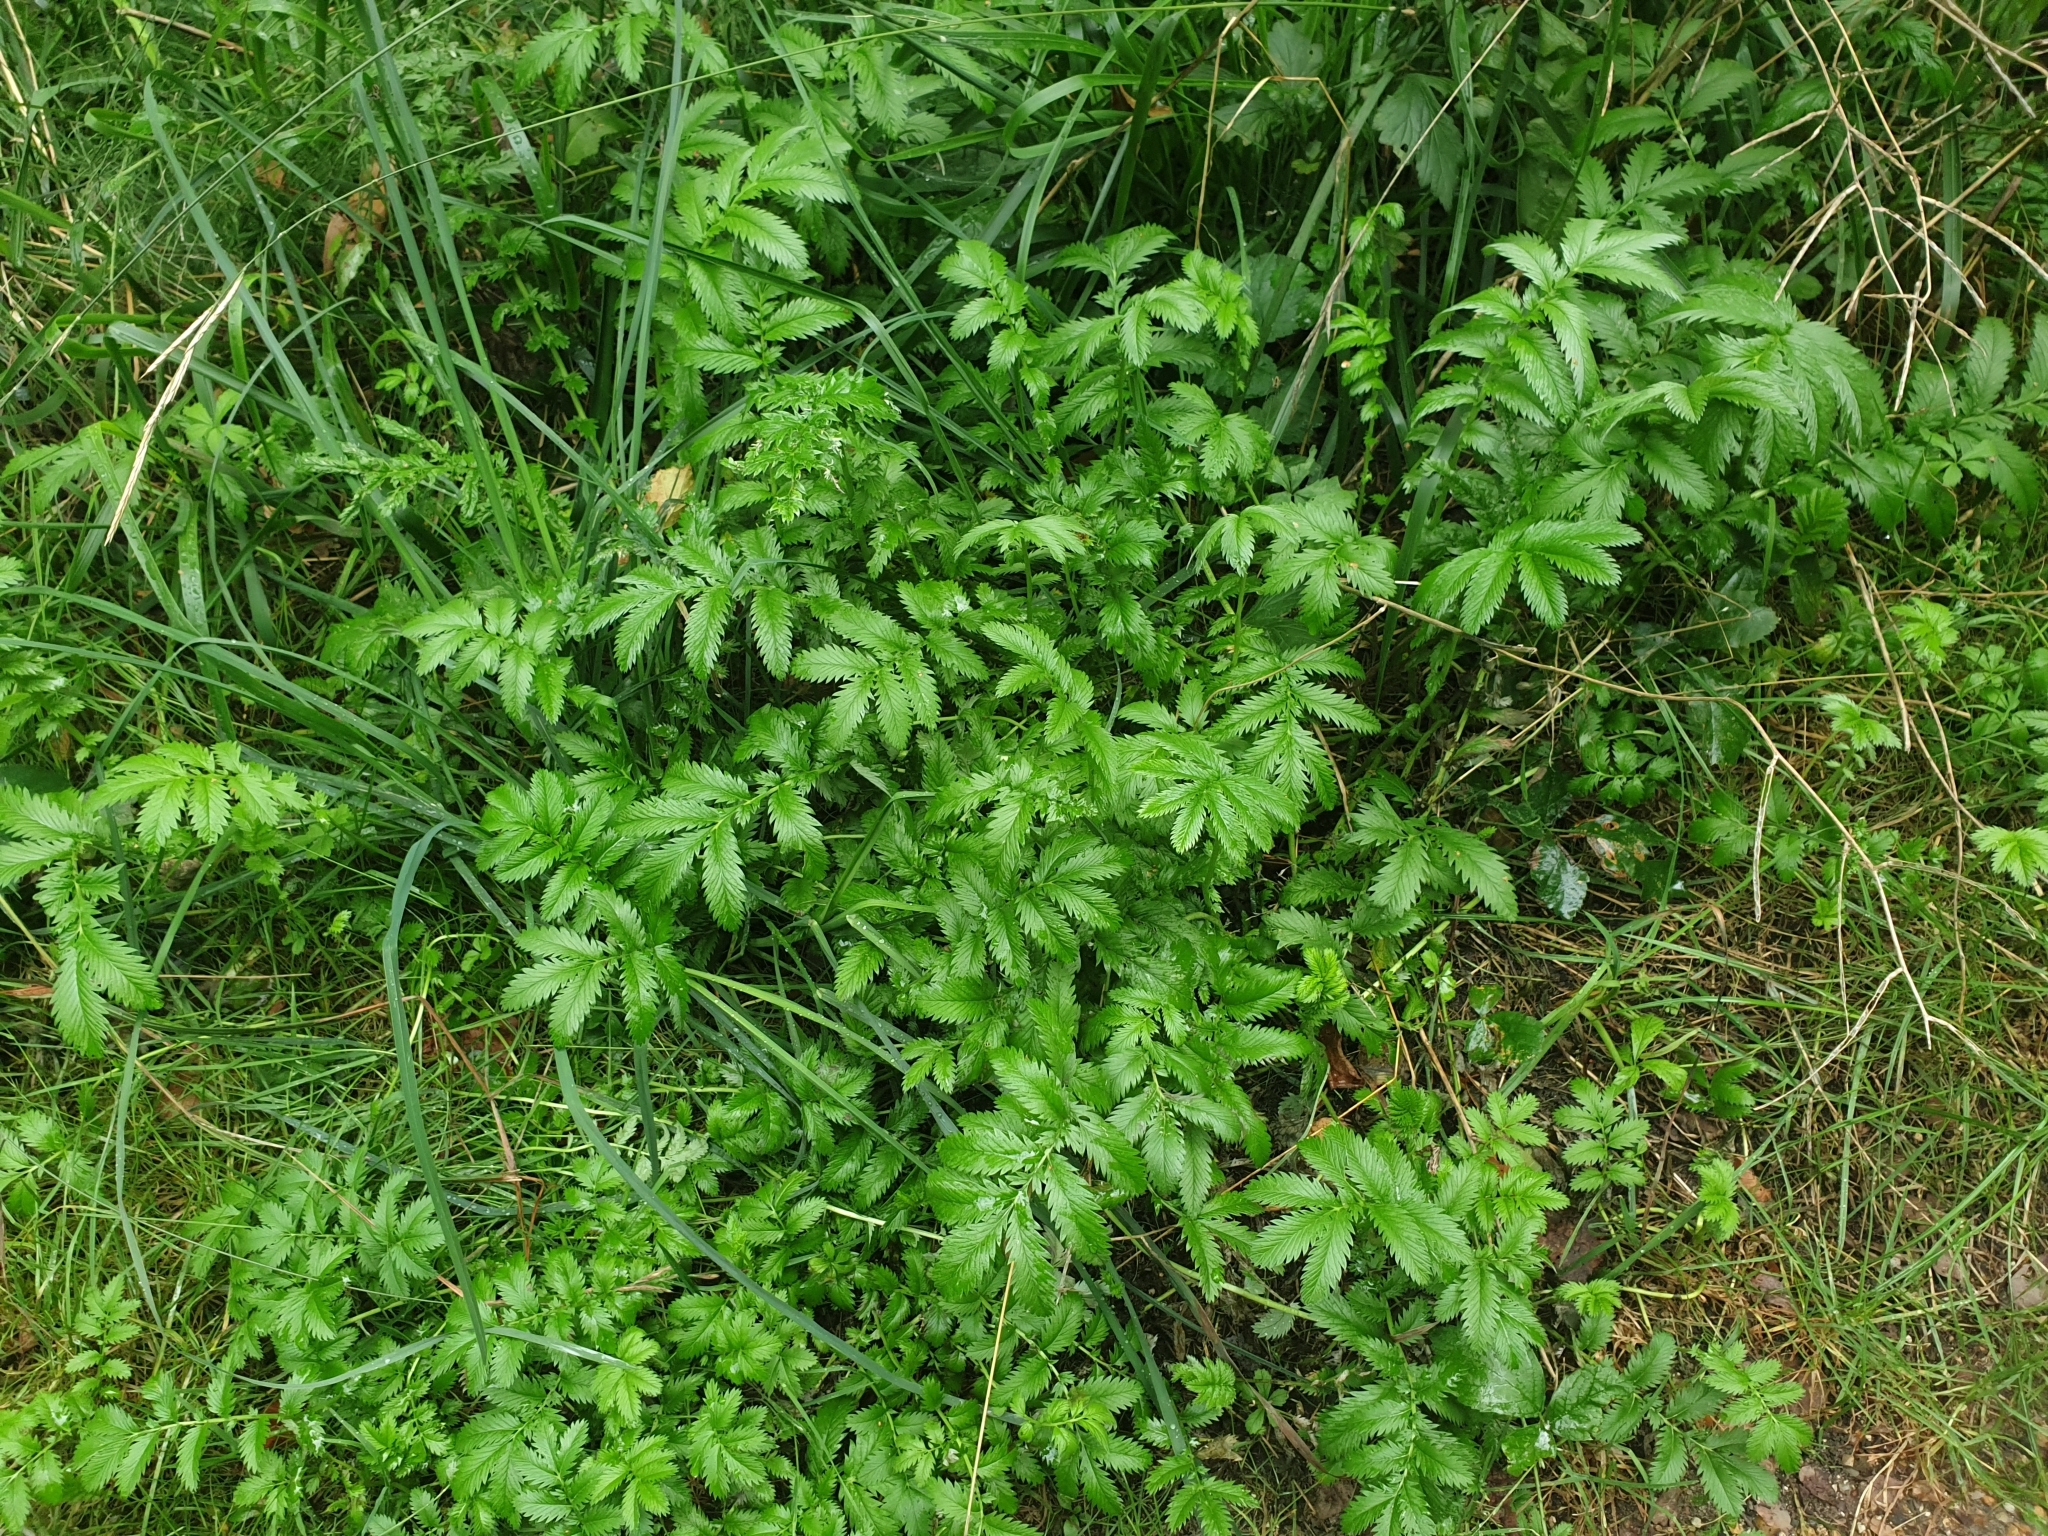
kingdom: Plantae
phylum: Tracheophyta
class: Magnoliopsida
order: Rosales
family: Rosaceae
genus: Argentina
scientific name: Argentina anserina
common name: Common silverweed
